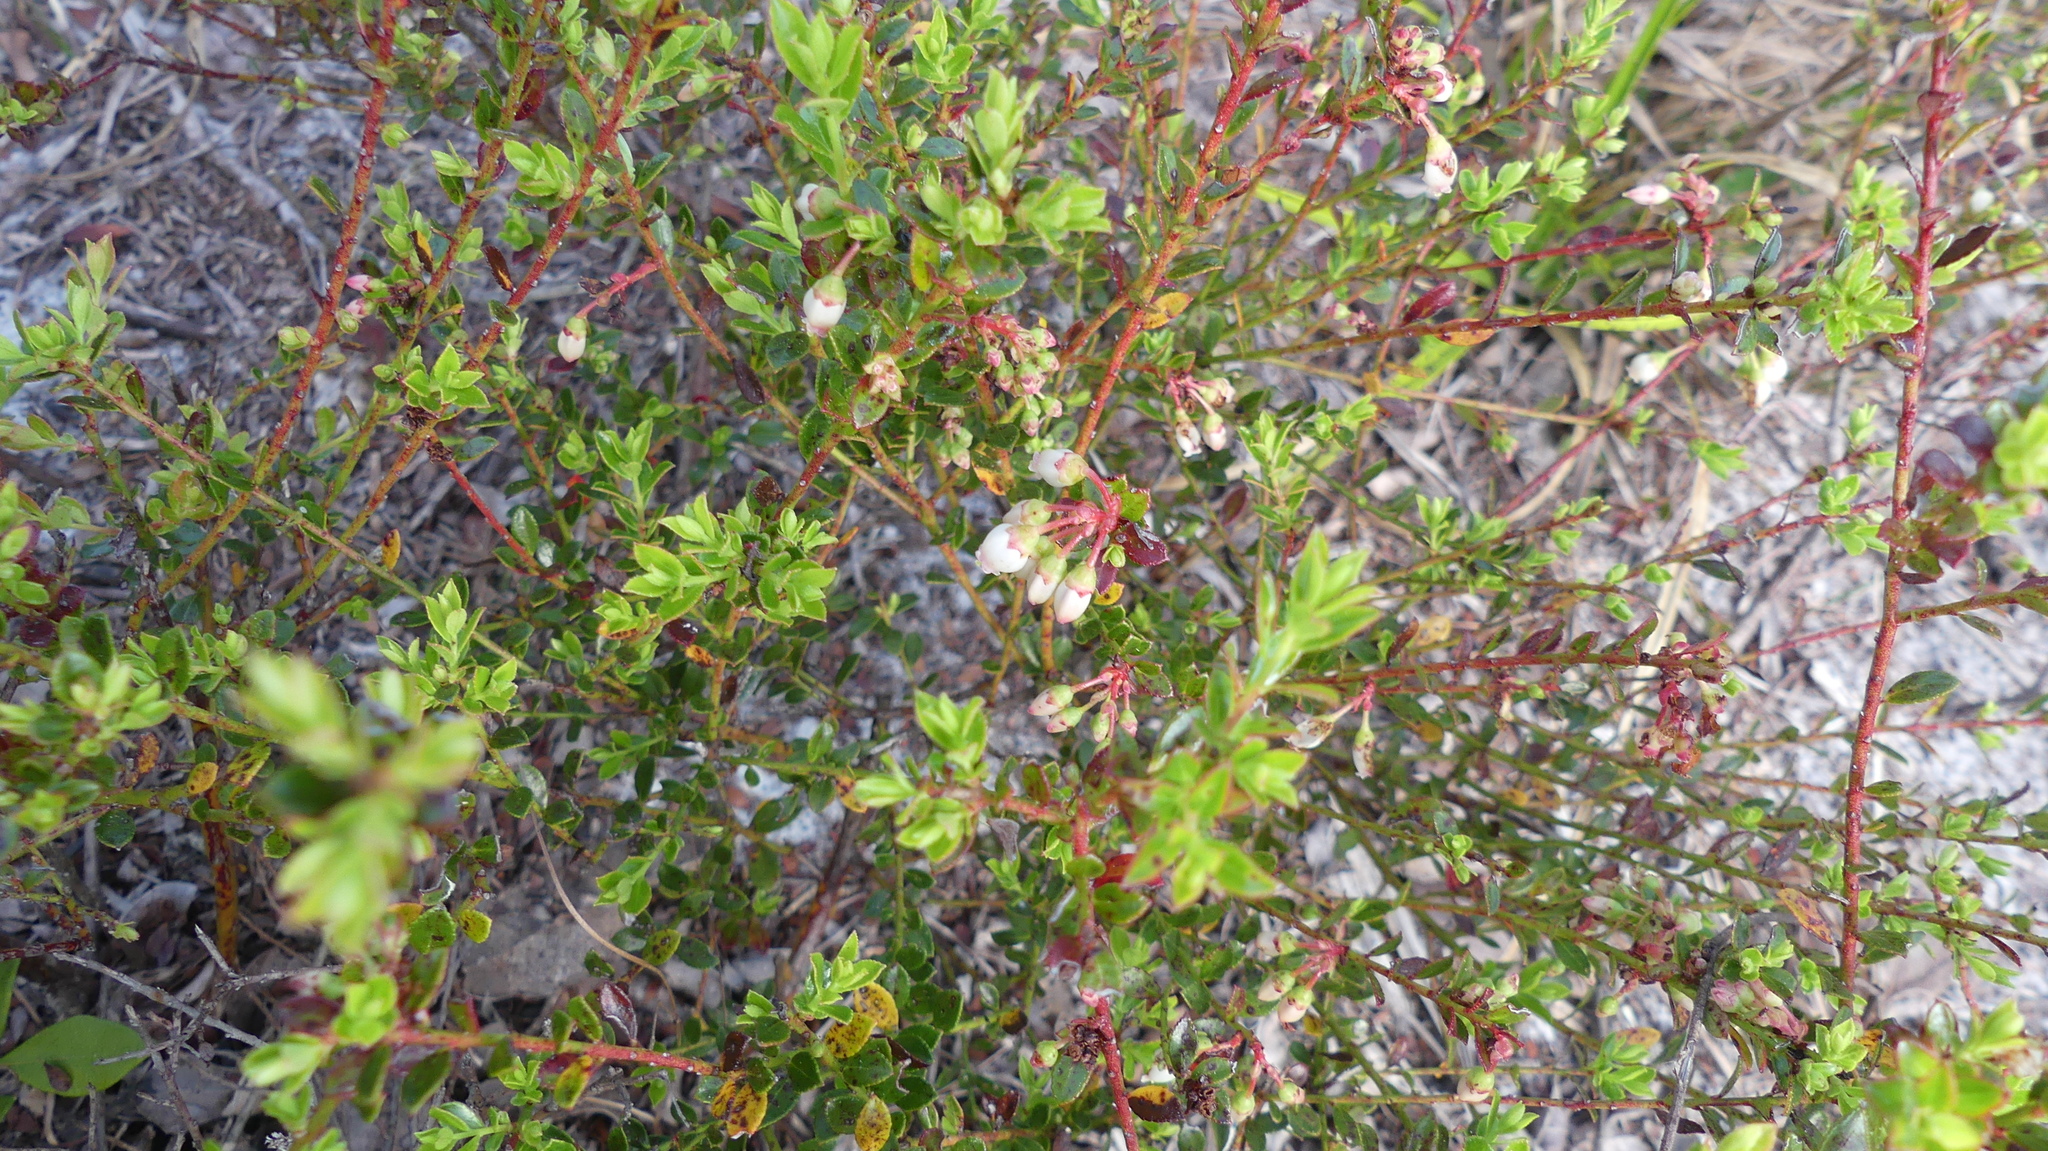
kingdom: Plantae
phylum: Tracheophyta
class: Magnoliopsida
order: Ericales
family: Ericaceae
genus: Vaccinium
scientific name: Vaccinium myrsinites
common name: Evergreen blueberry
